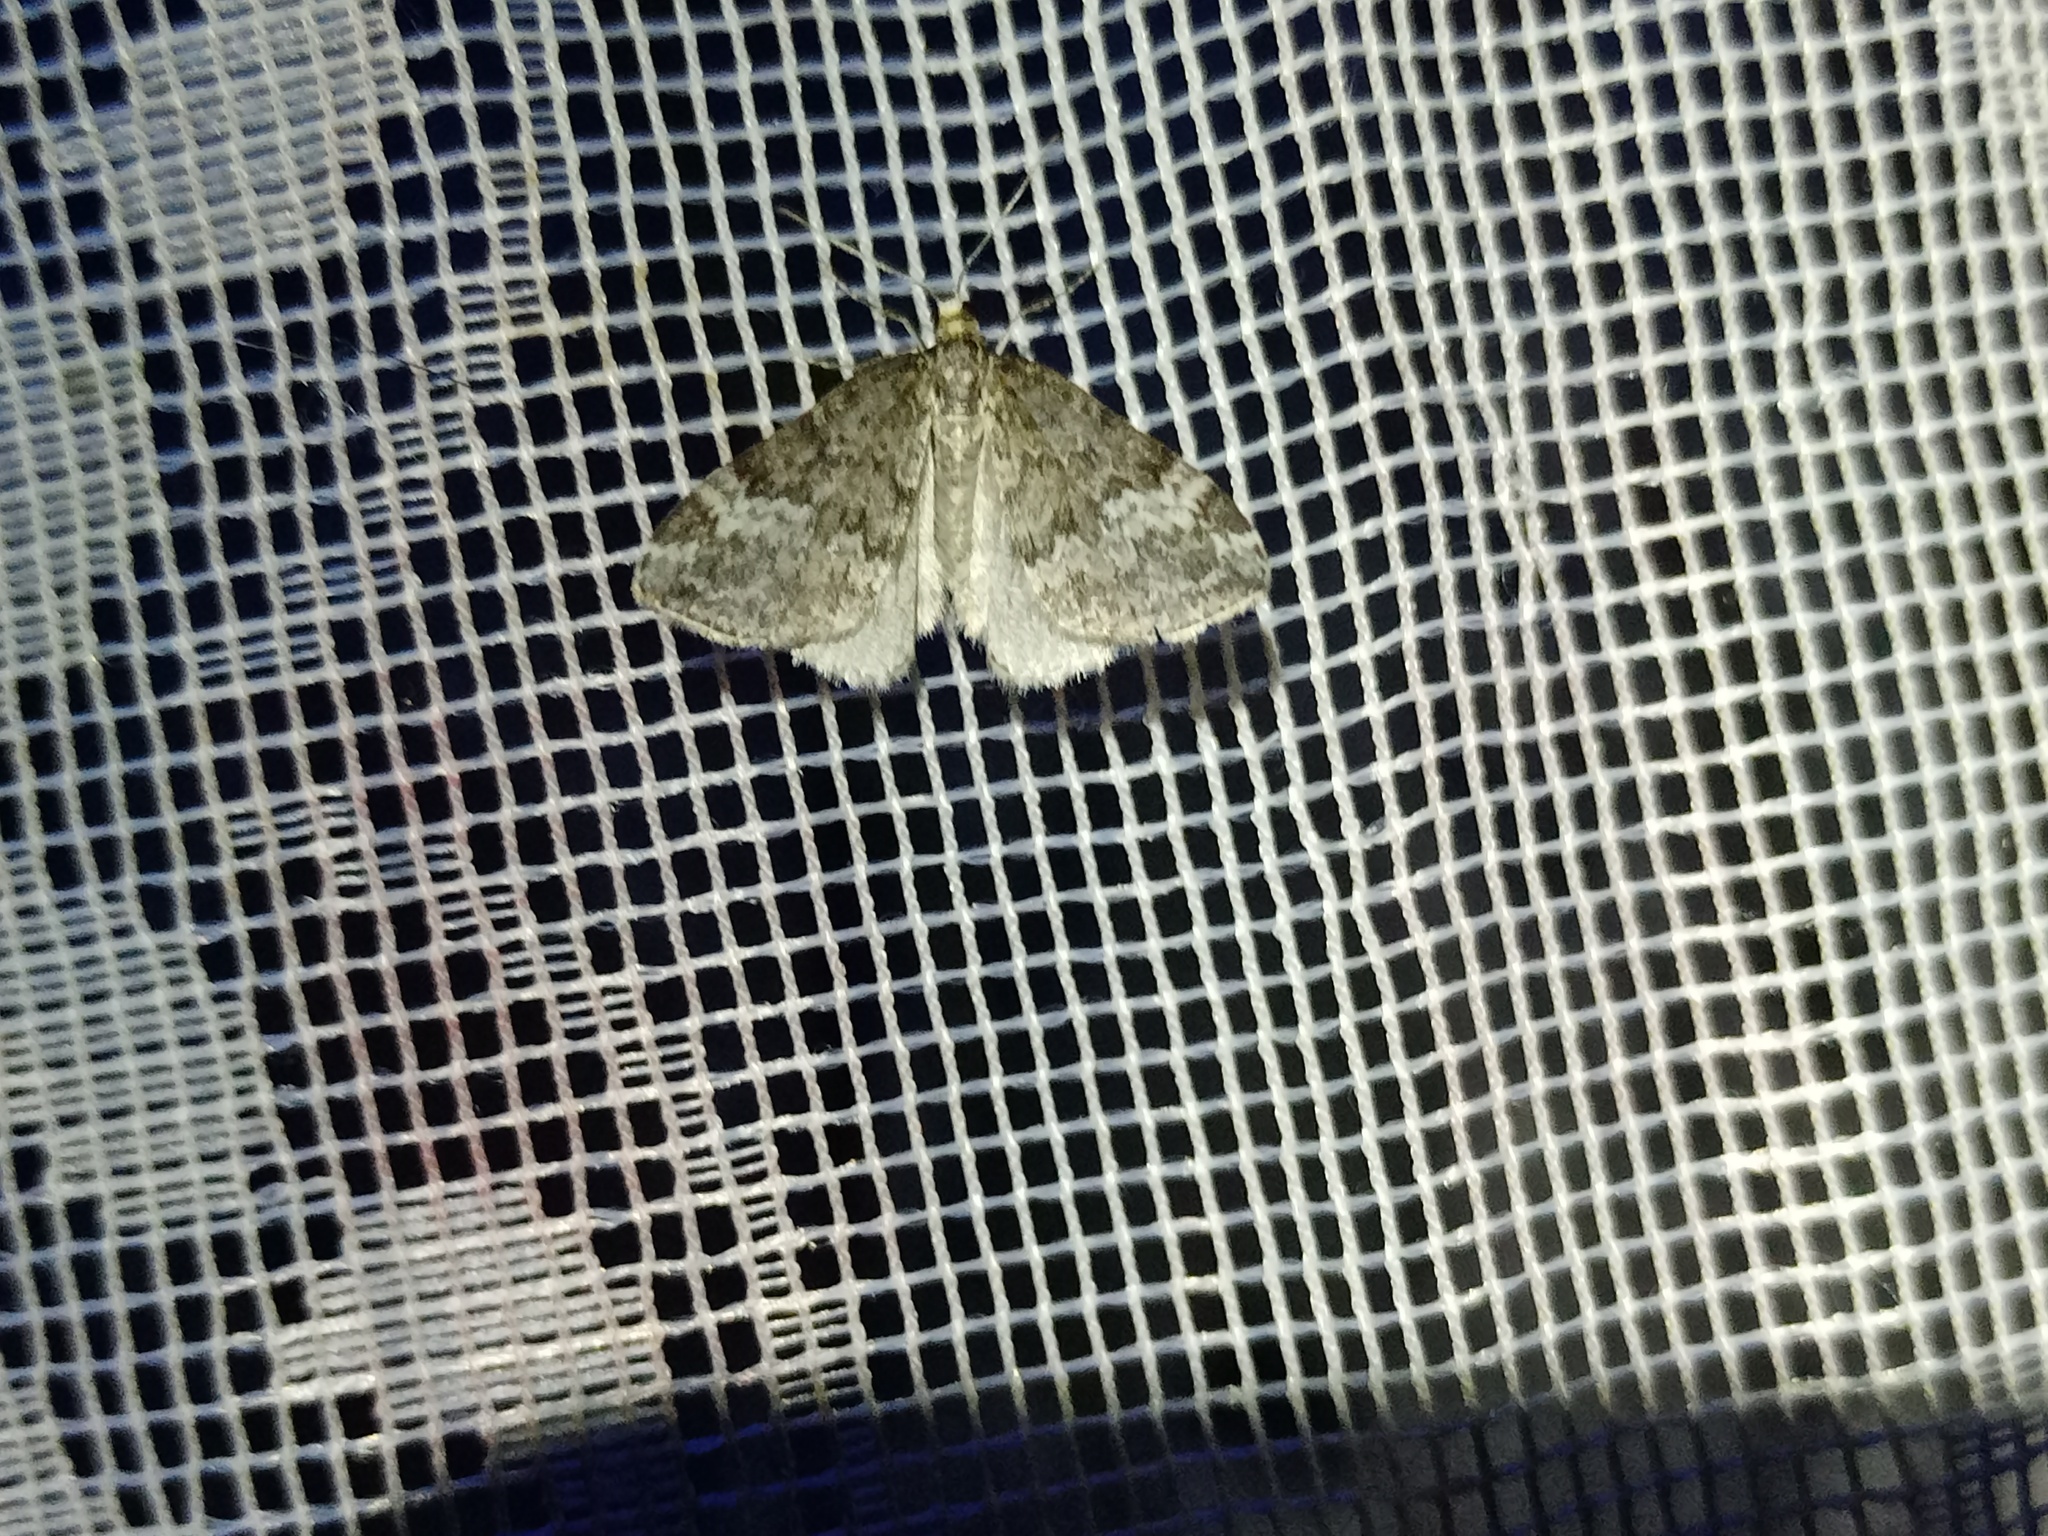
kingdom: Animalia
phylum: Arthropoda
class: Insecta
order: Lepidoptera
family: Geometridae
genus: Perizoma
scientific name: Perizoma hydrata
